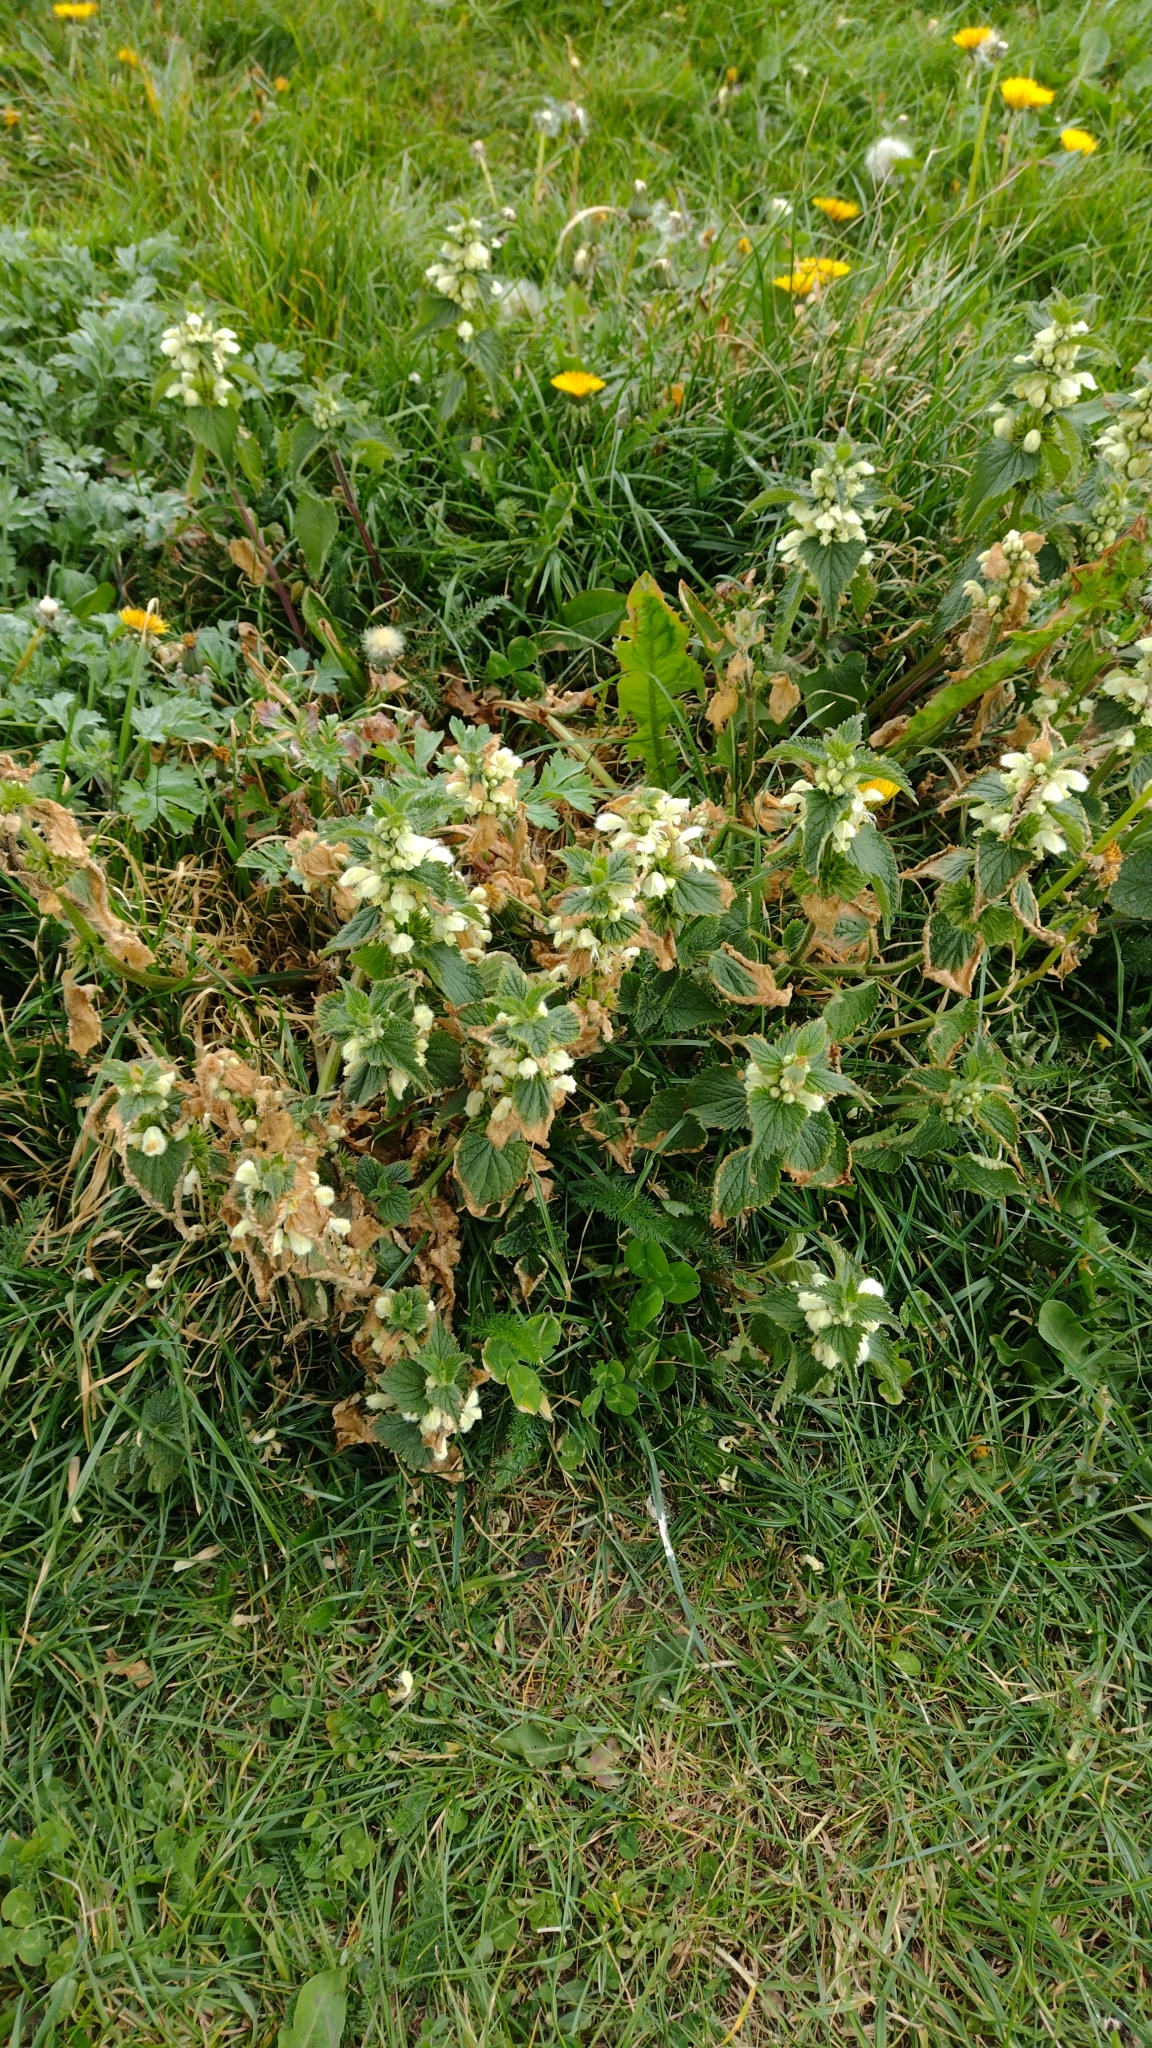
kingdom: Plantae
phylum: Tracheophyta
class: Magnoliopsida
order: Lamiales
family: Lamiaceae
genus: Lamium
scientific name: Lamium album
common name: White dead-nettle
